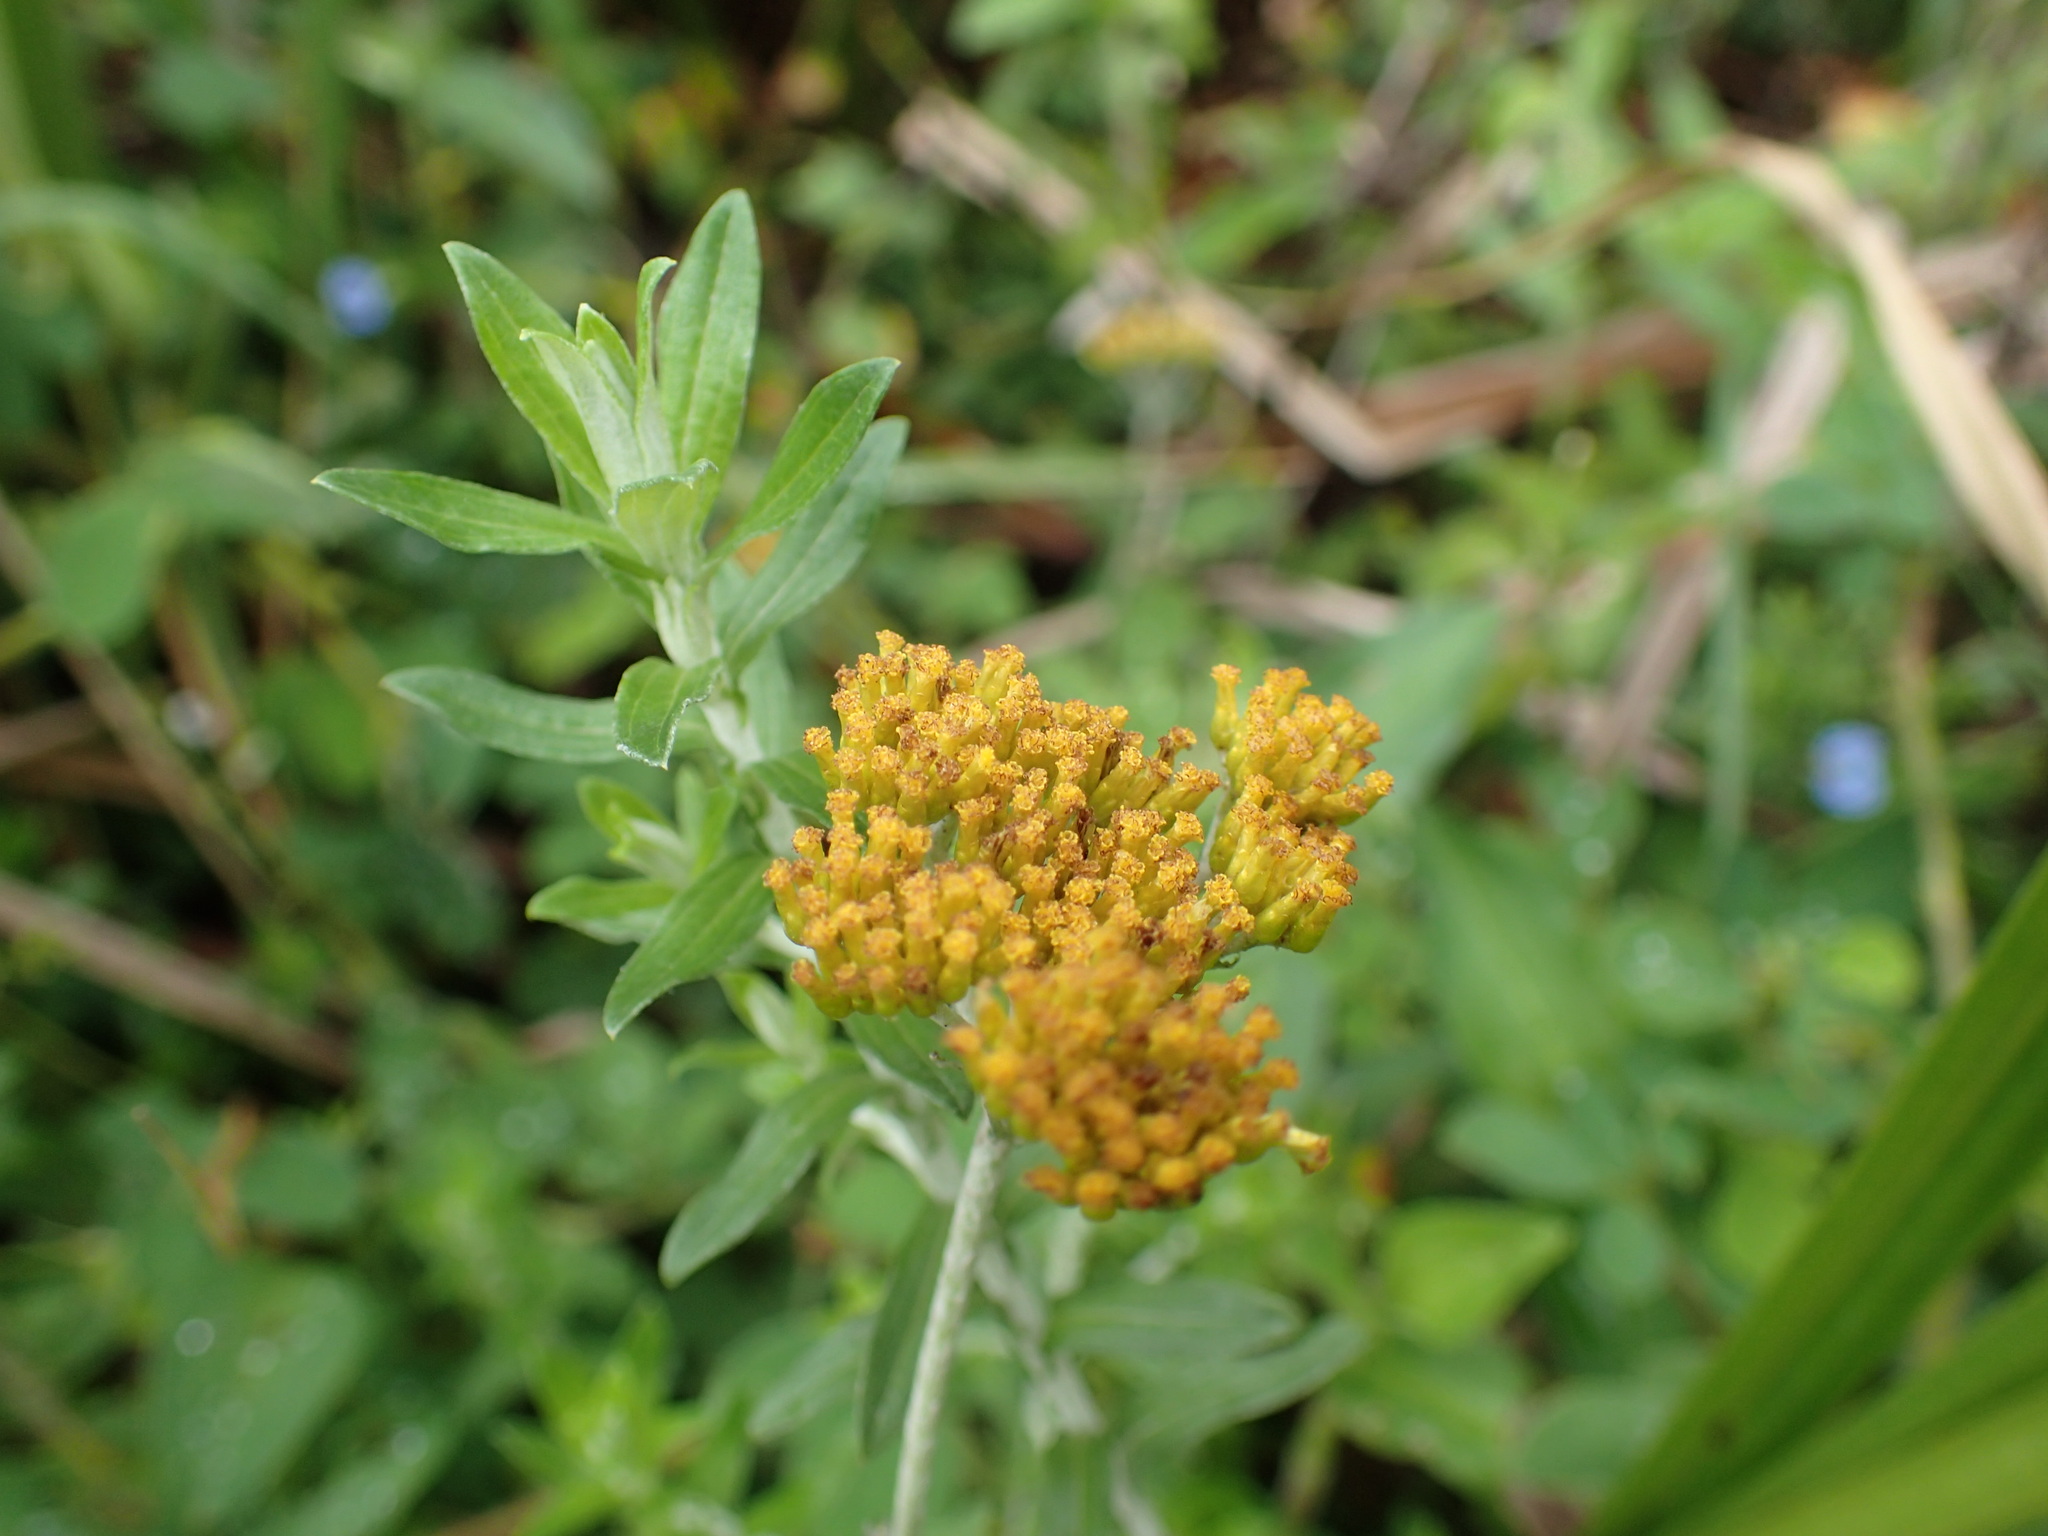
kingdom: Plantae
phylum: Tracheophyta
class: Magnoliopsida
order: Asterales
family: Asteraceae
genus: Helichrysum
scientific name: Helichrysum cymosum
